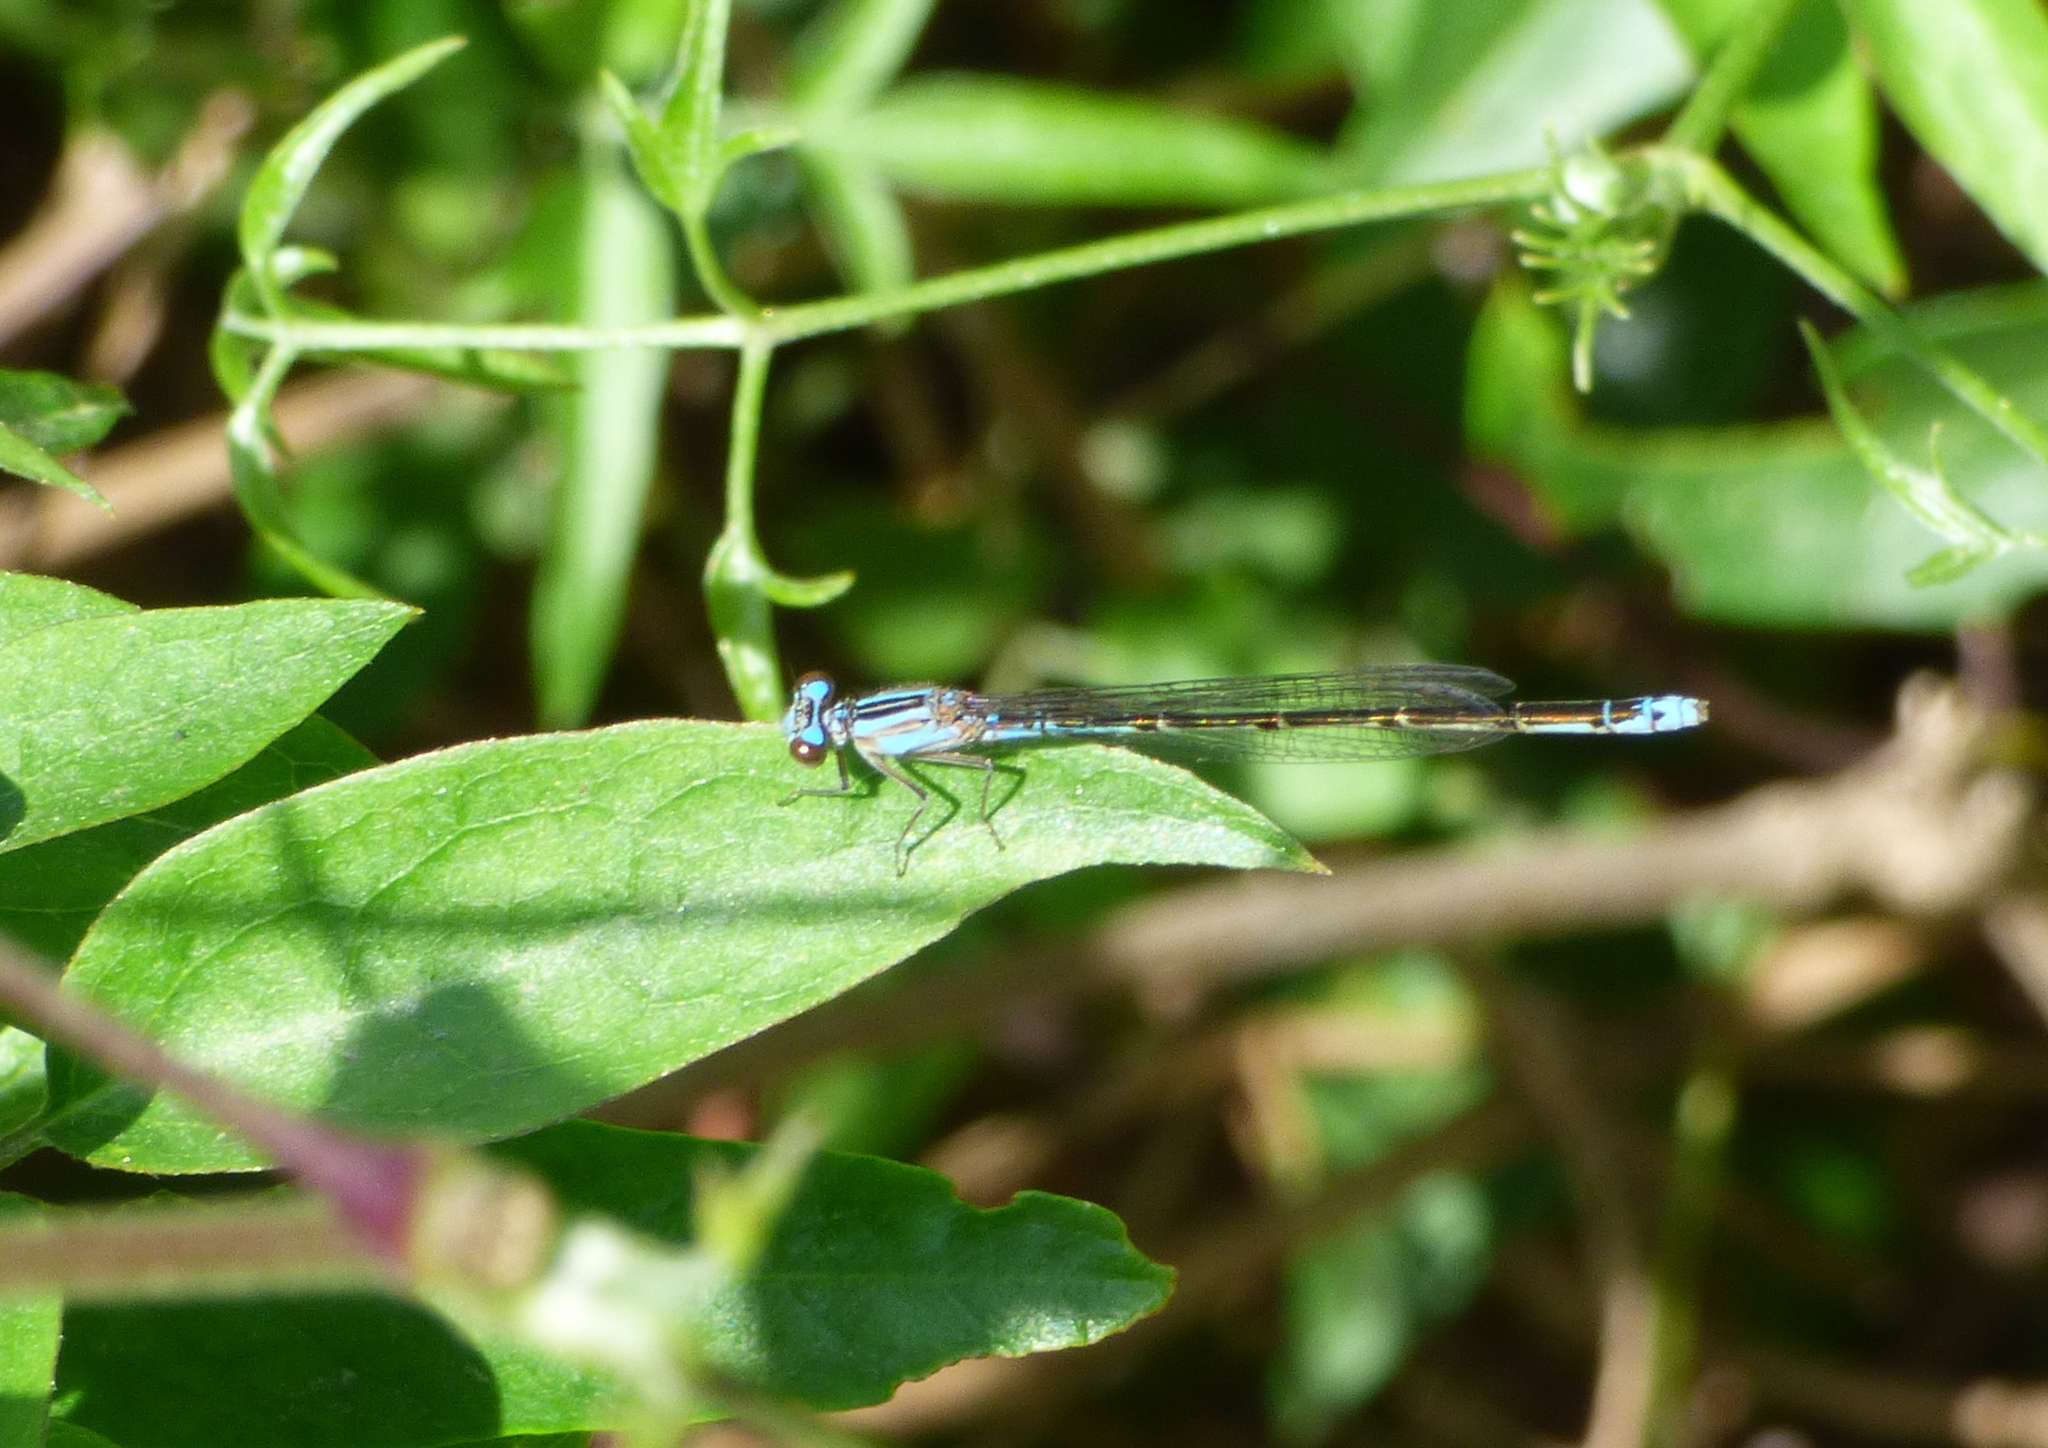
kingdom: Animalia
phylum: Arthropoda
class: Insecta
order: Odonata
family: Coenagrionidae
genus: Homeoura
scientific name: Homeoura lindneri
